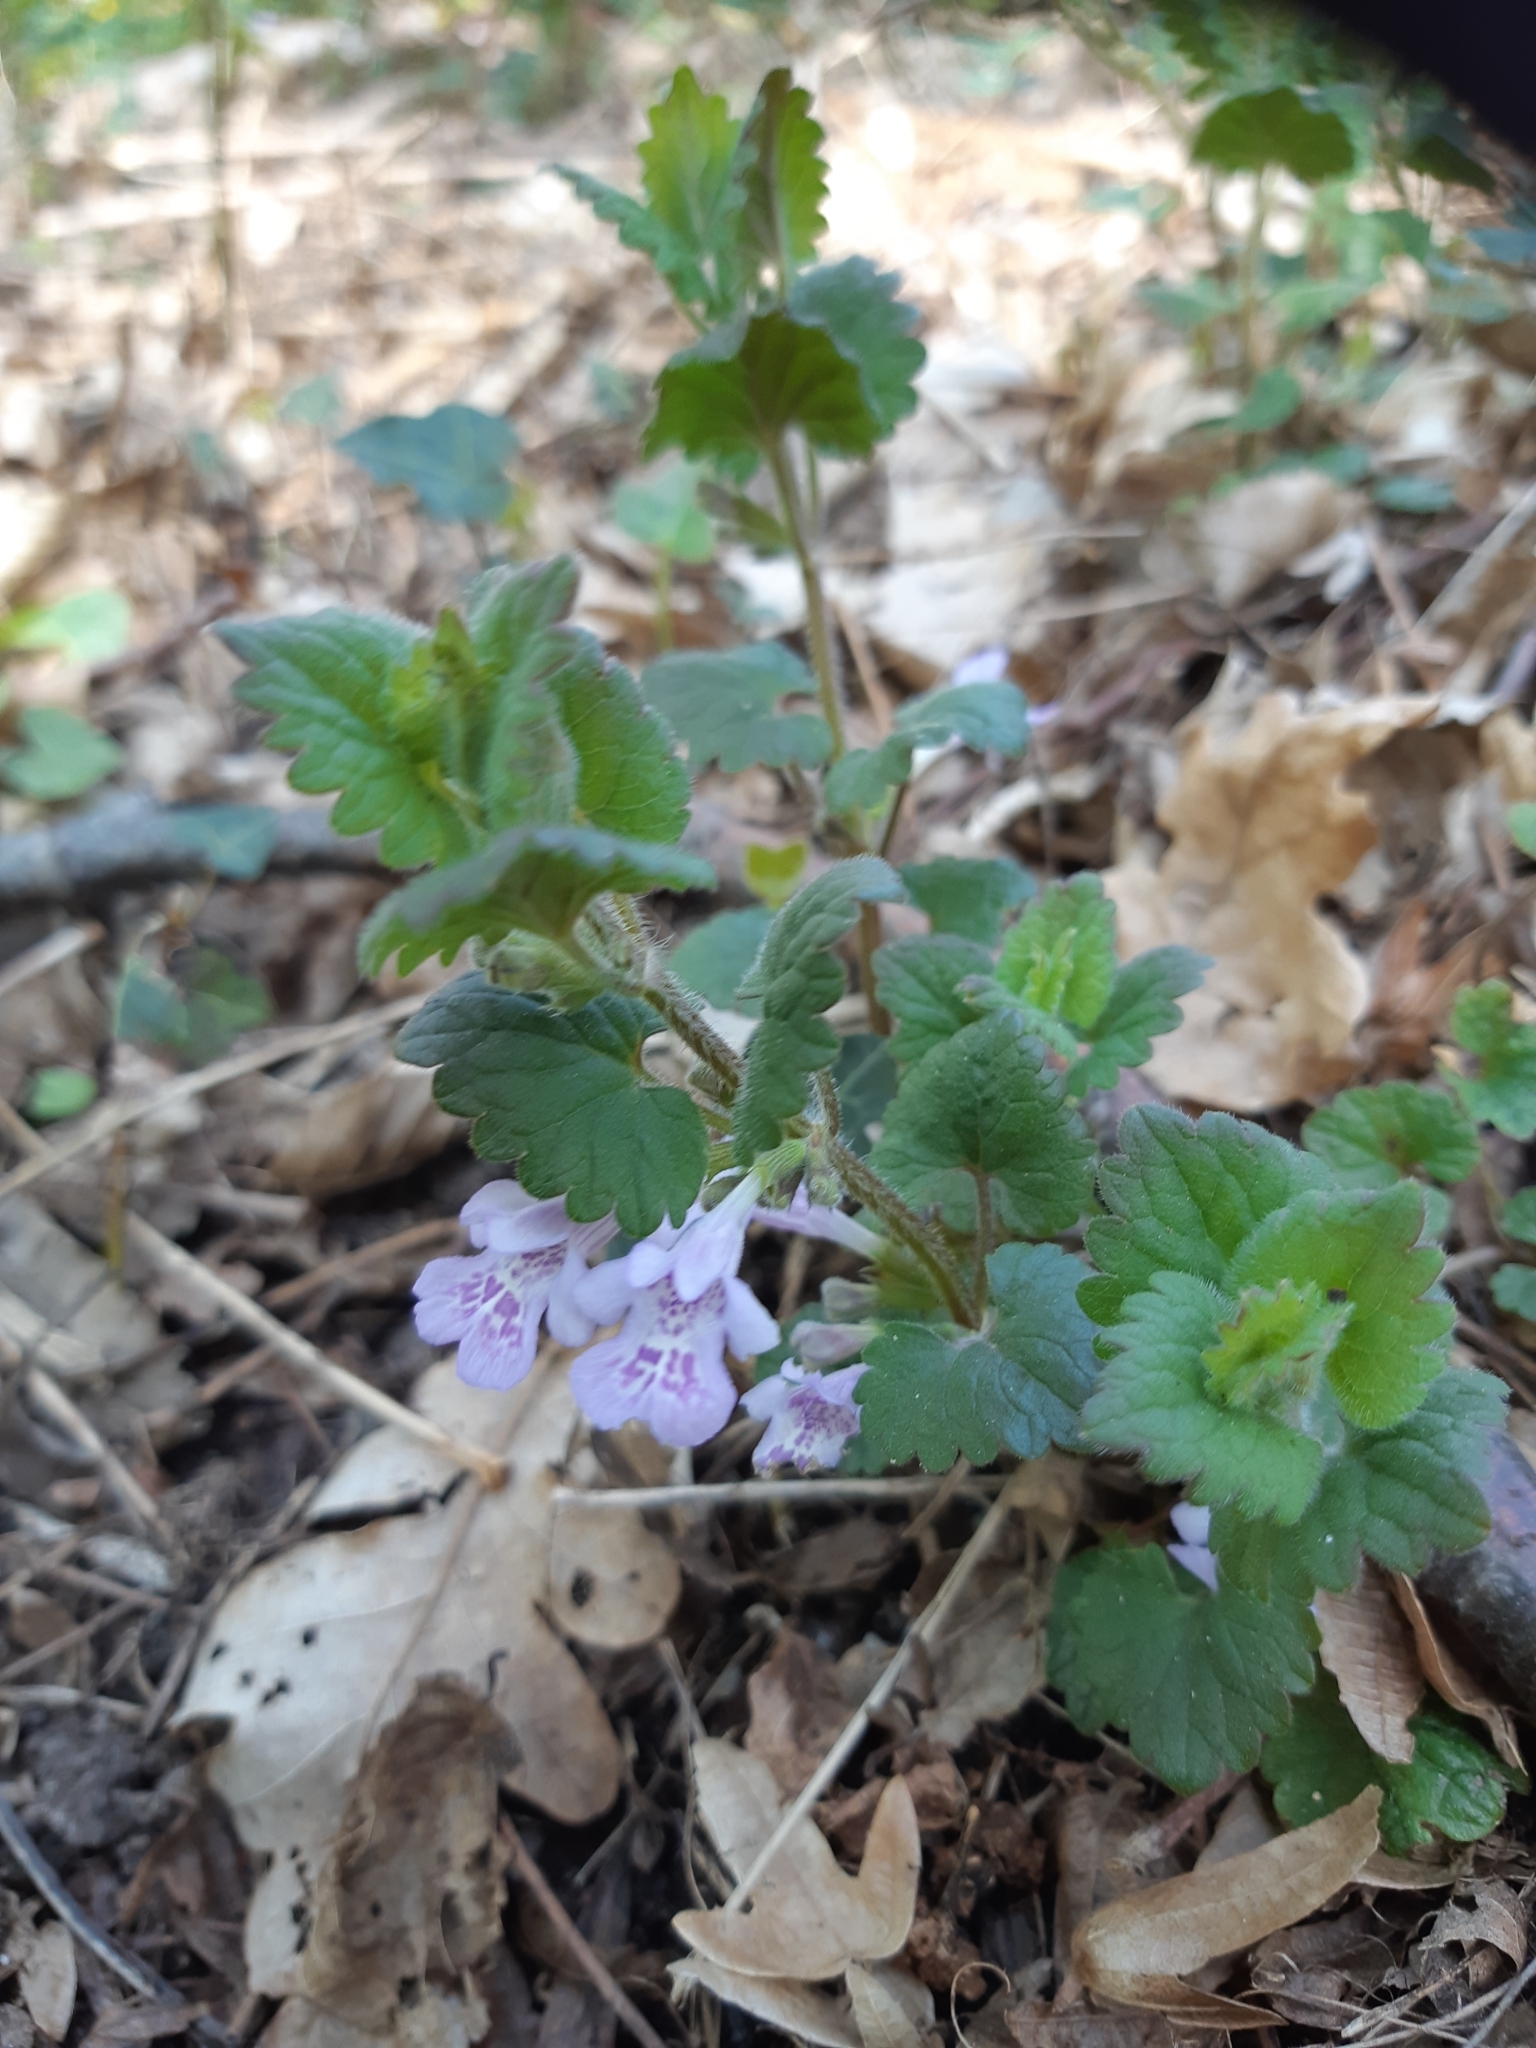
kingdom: Plantae
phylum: Tracheophyta
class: Magnoliopsida
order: Lamiales
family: Lamiaceae
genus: Glechoma
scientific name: Glechoma hederacea
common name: Ground ivy
